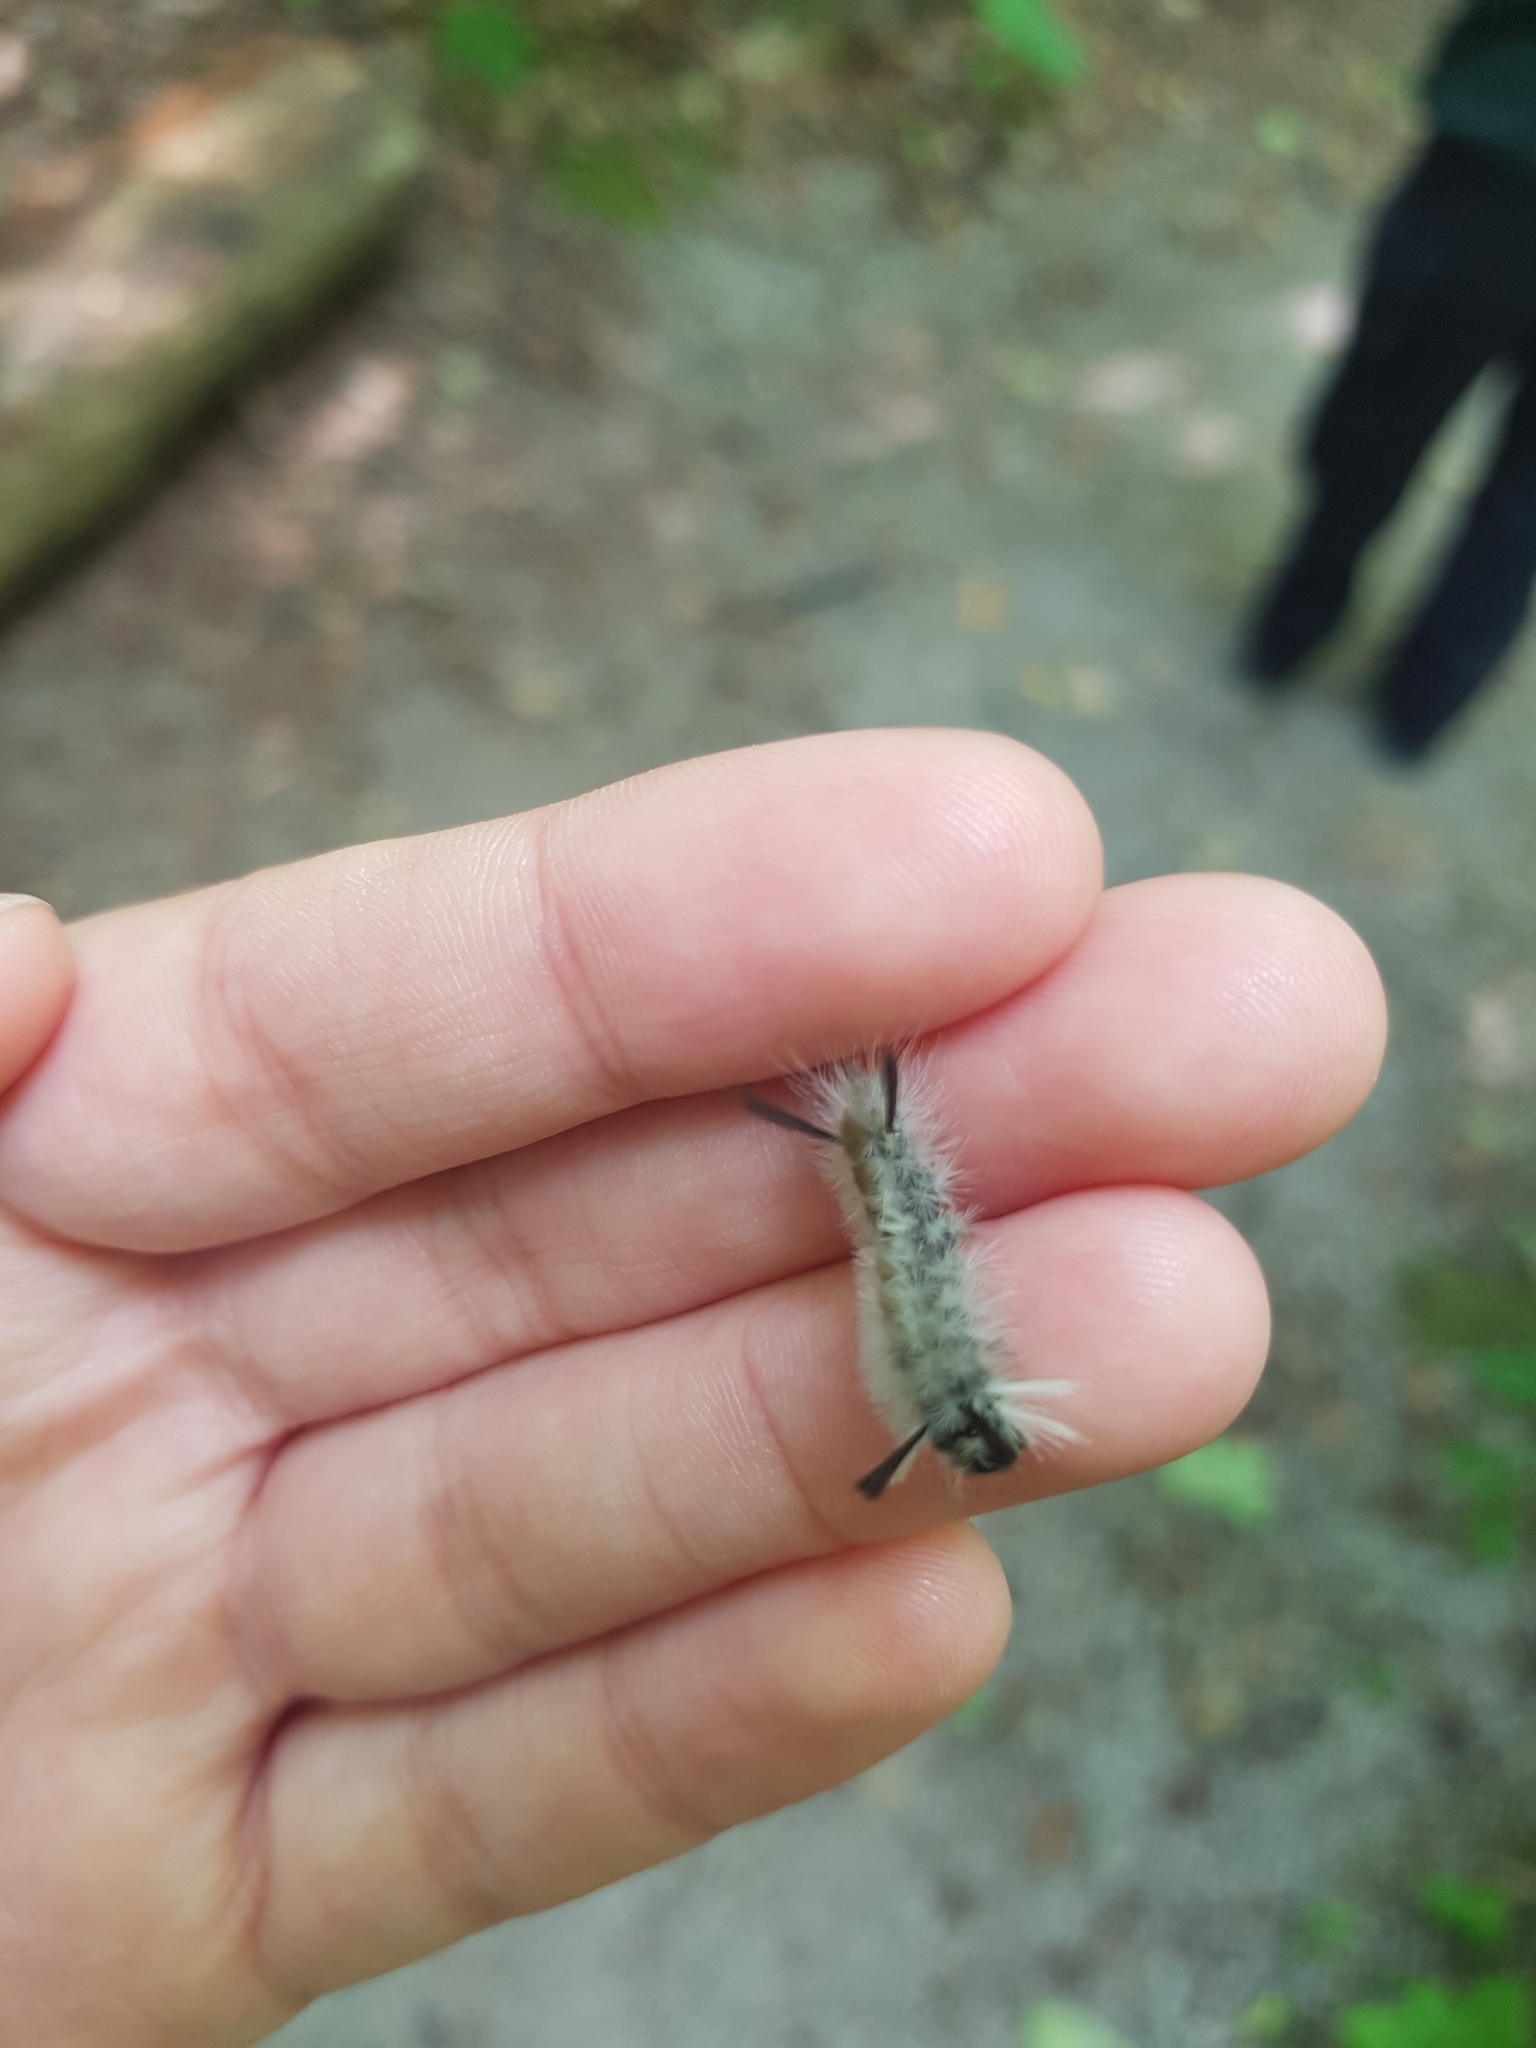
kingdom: Animalia
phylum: Arthropoda
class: Insecta
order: Lepidoptera
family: Erebidae
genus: Halysidota
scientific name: Halysidota tessellaris
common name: Banded tussock moth
